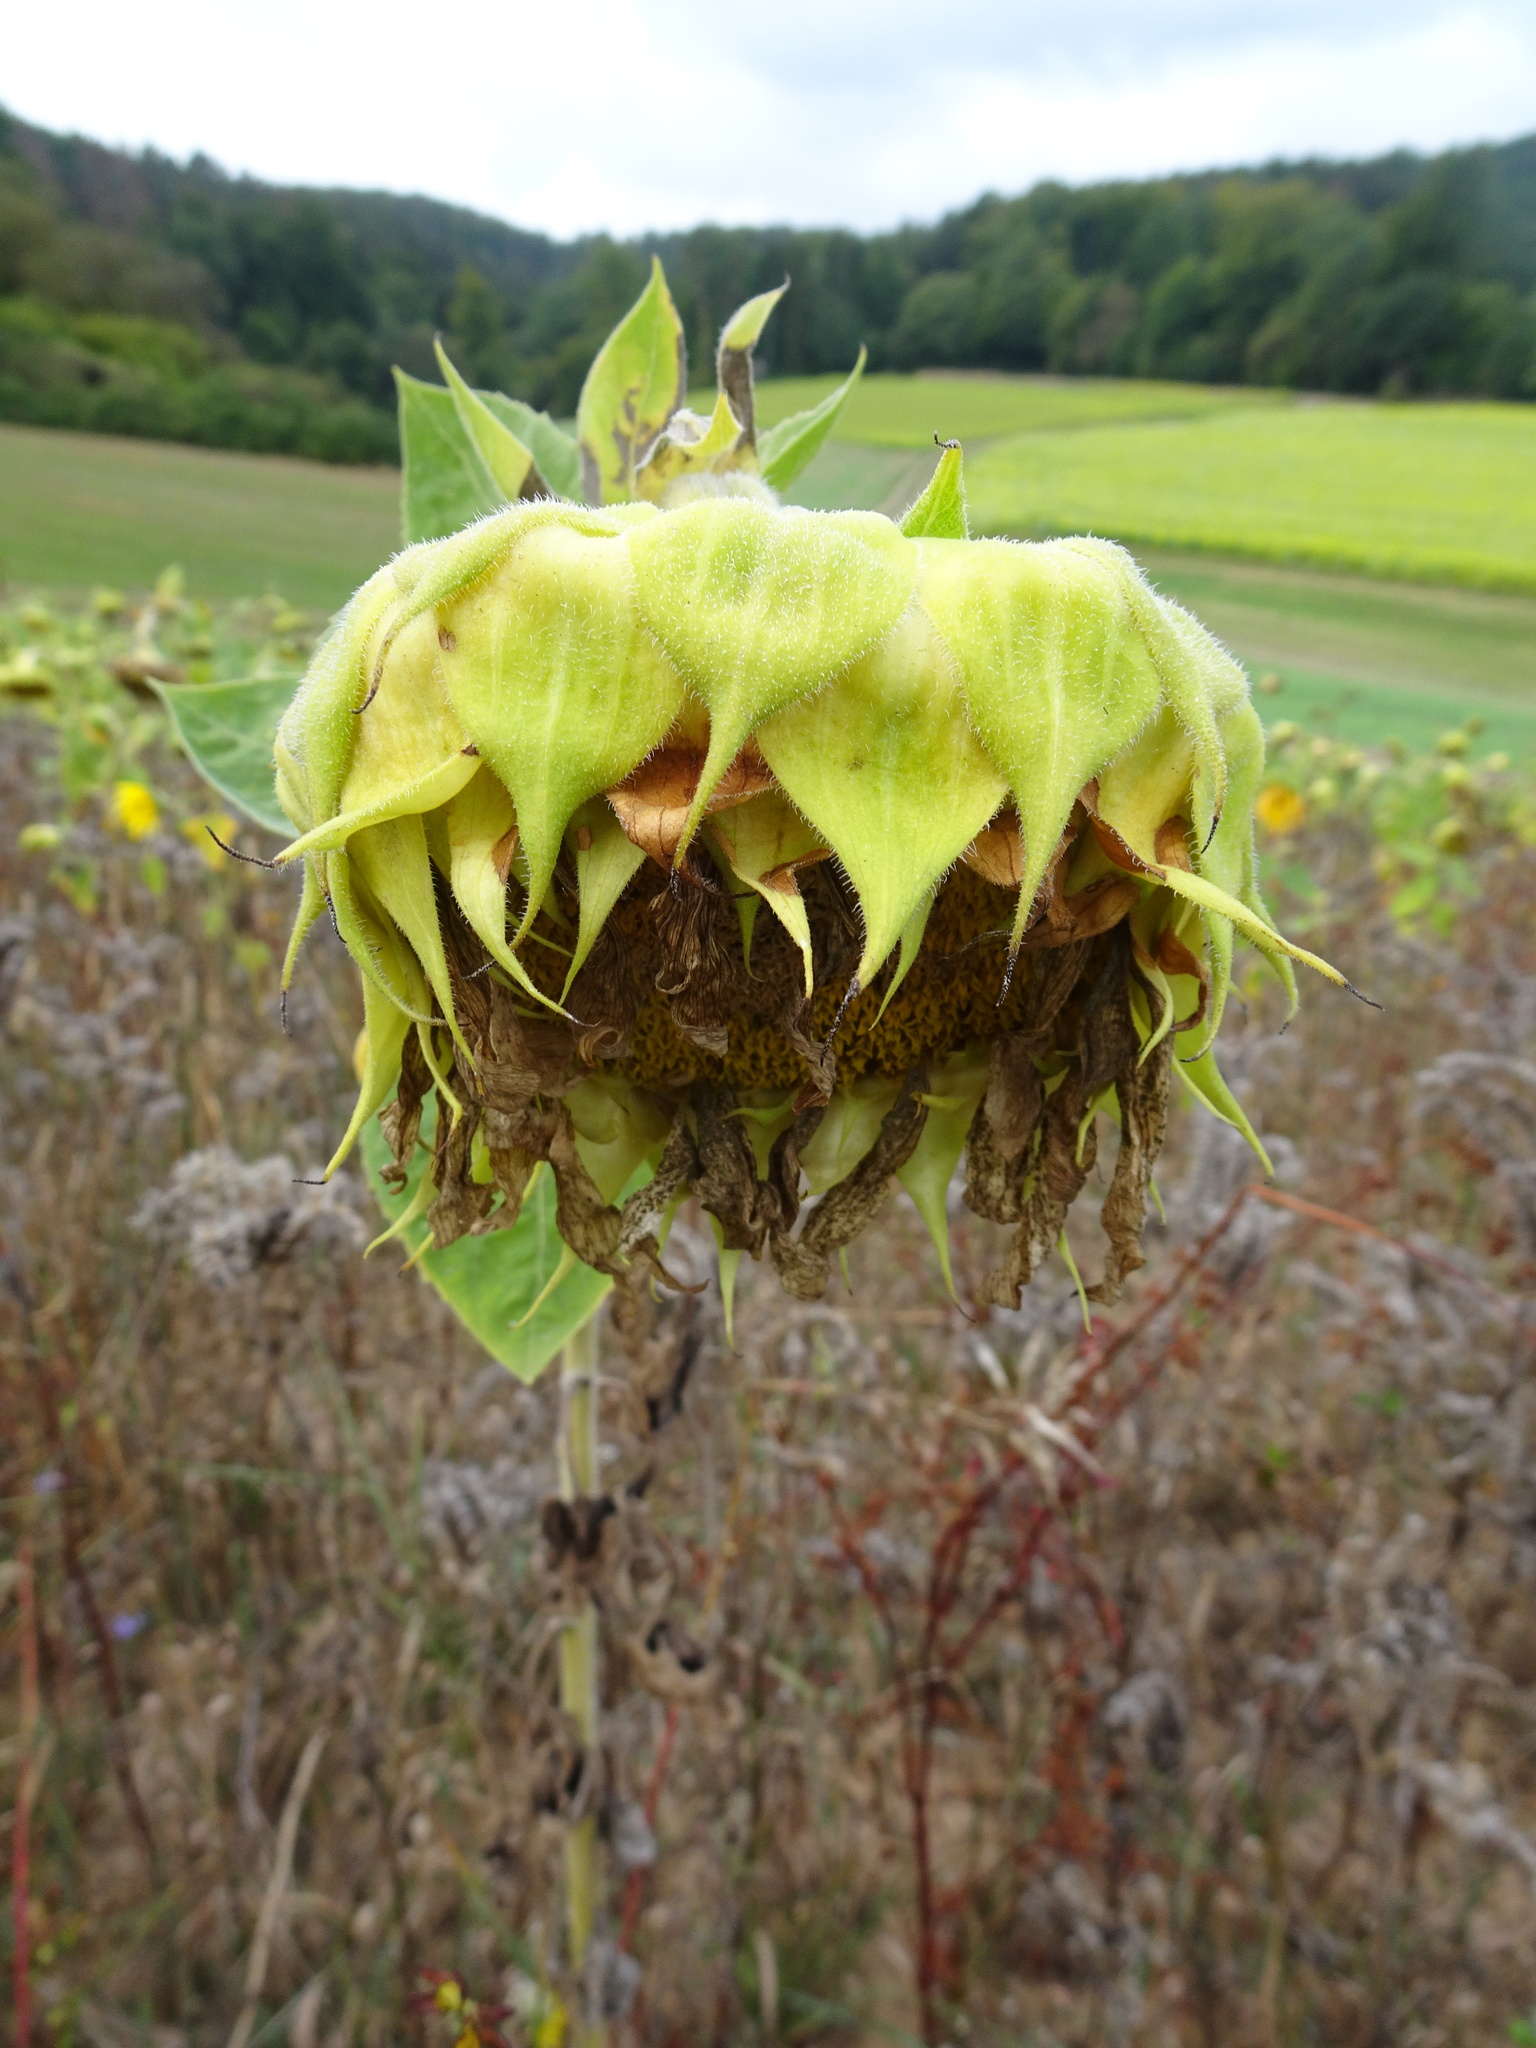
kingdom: Plantae
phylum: Tracheophyta
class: Magnoliopsida
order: Asterales
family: Asteraceae
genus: Helianthus
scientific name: Helianthus annuus
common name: Sunflower
